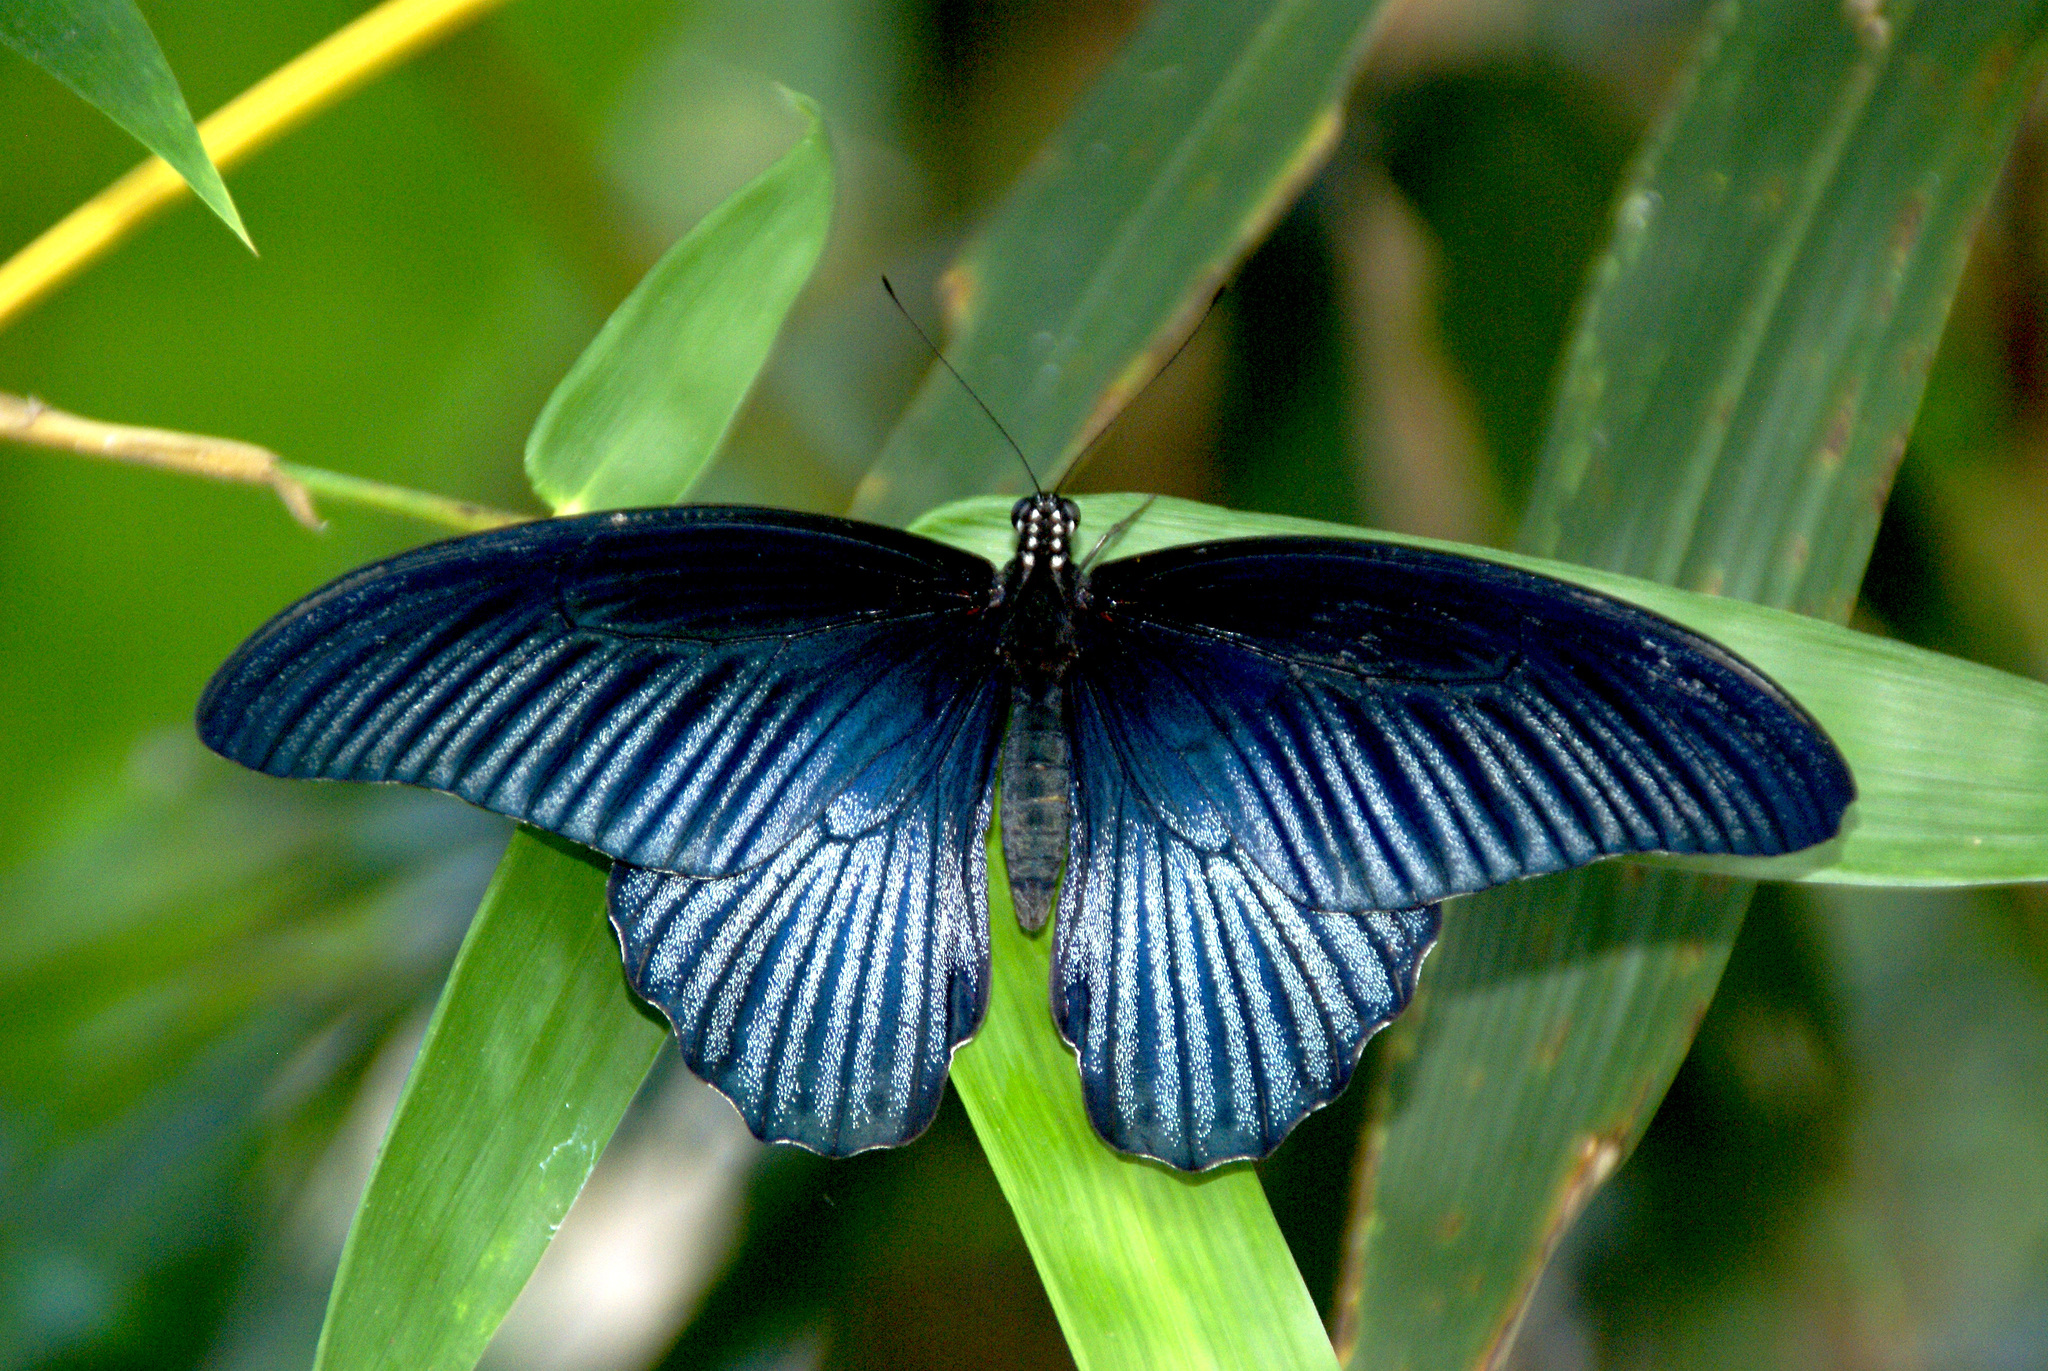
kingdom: Animalia
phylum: Arthropoda
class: Insecta
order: Lepidoptera
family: Papilionidae
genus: Papilio
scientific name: Papilio memnon
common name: Great mormon
